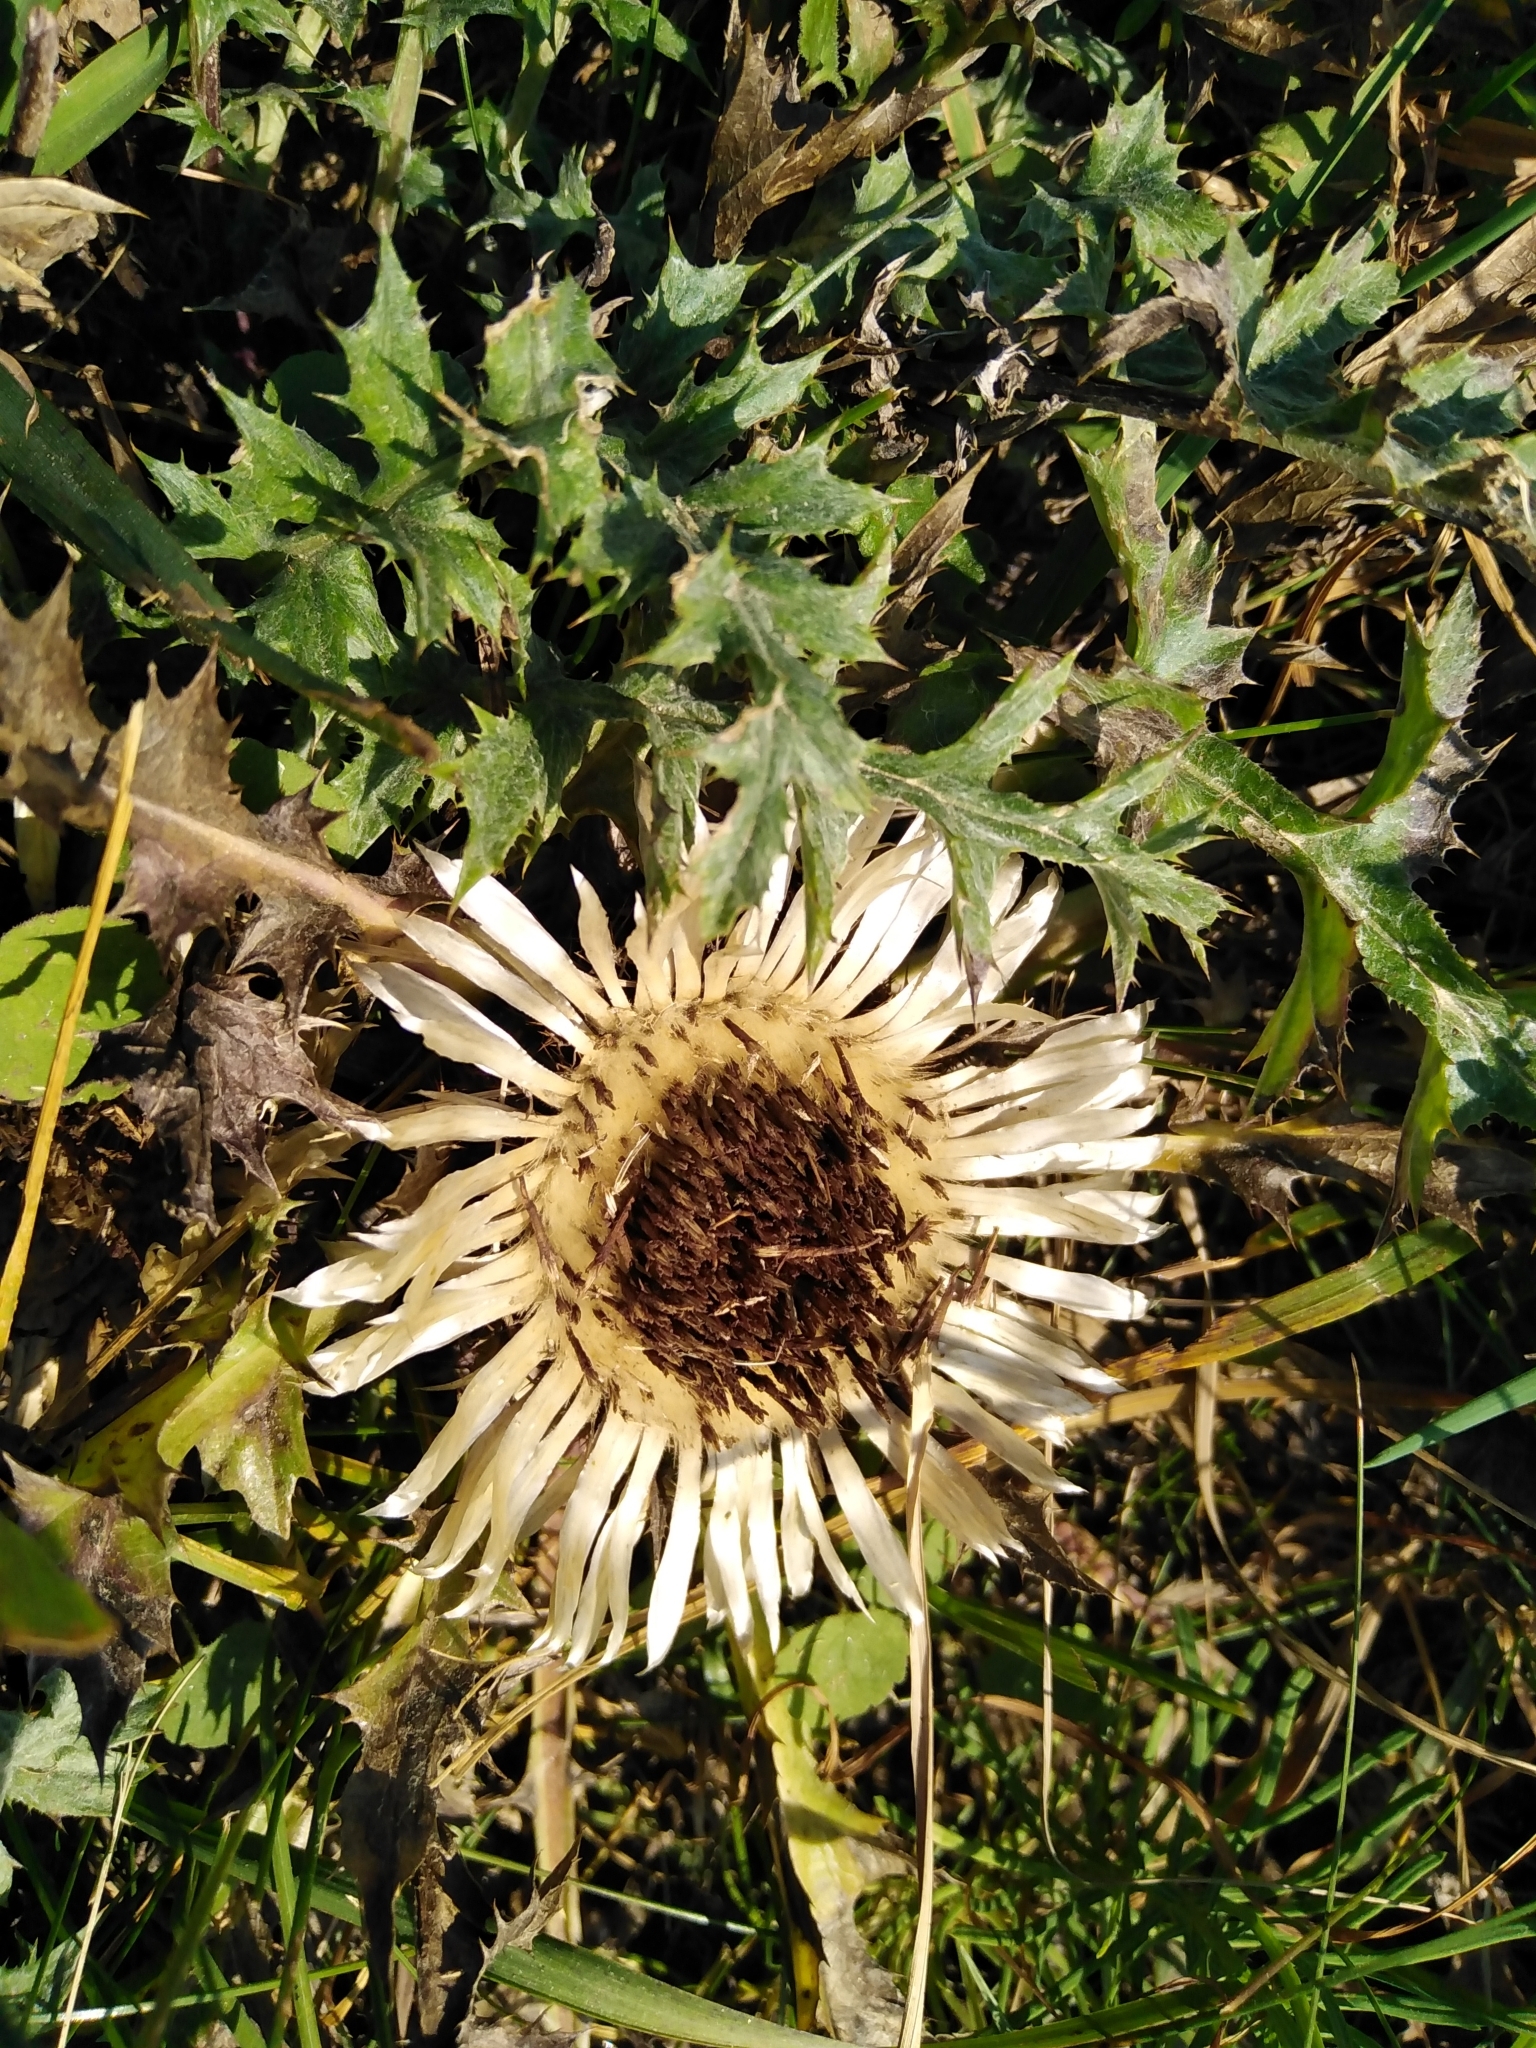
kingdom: Plantae
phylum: Tracheophyta
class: Magnoliopsida
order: Asterales
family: Asteraceae
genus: Carlina
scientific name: Carlina acaulis
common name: Stemless carline thistle
